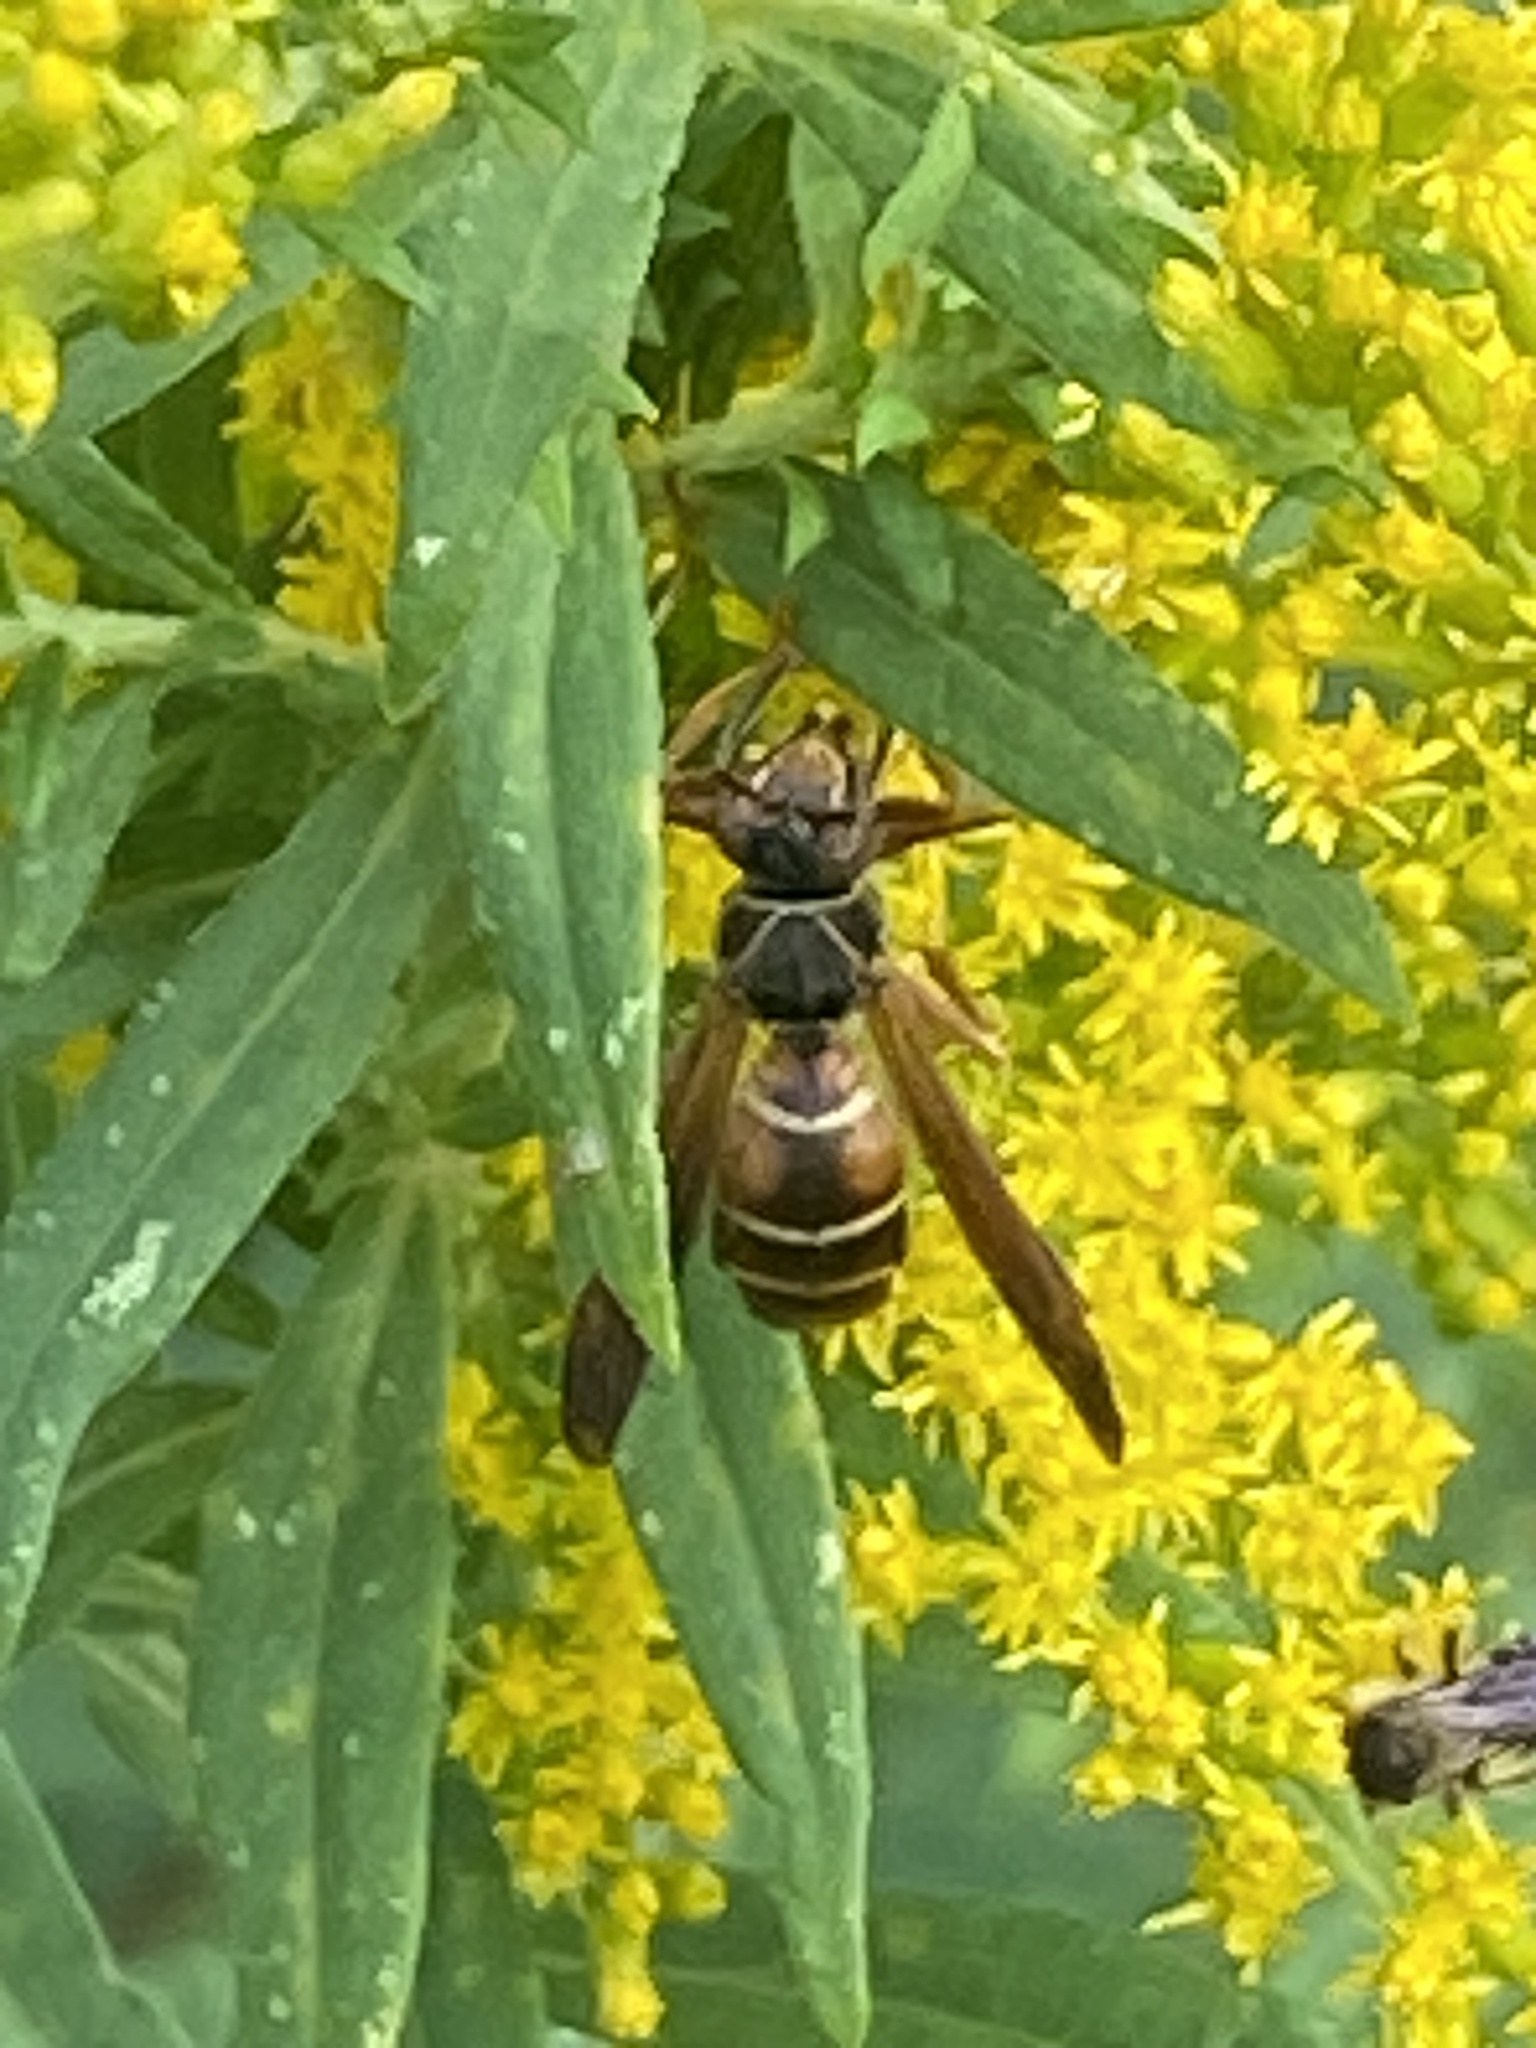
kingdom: Animalia
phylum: Arthropoda
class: Insecta
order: Hymenoptera
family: Eumenidae
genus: Polistes
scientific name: Polistes fuscatus
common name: Dark paper wasp
